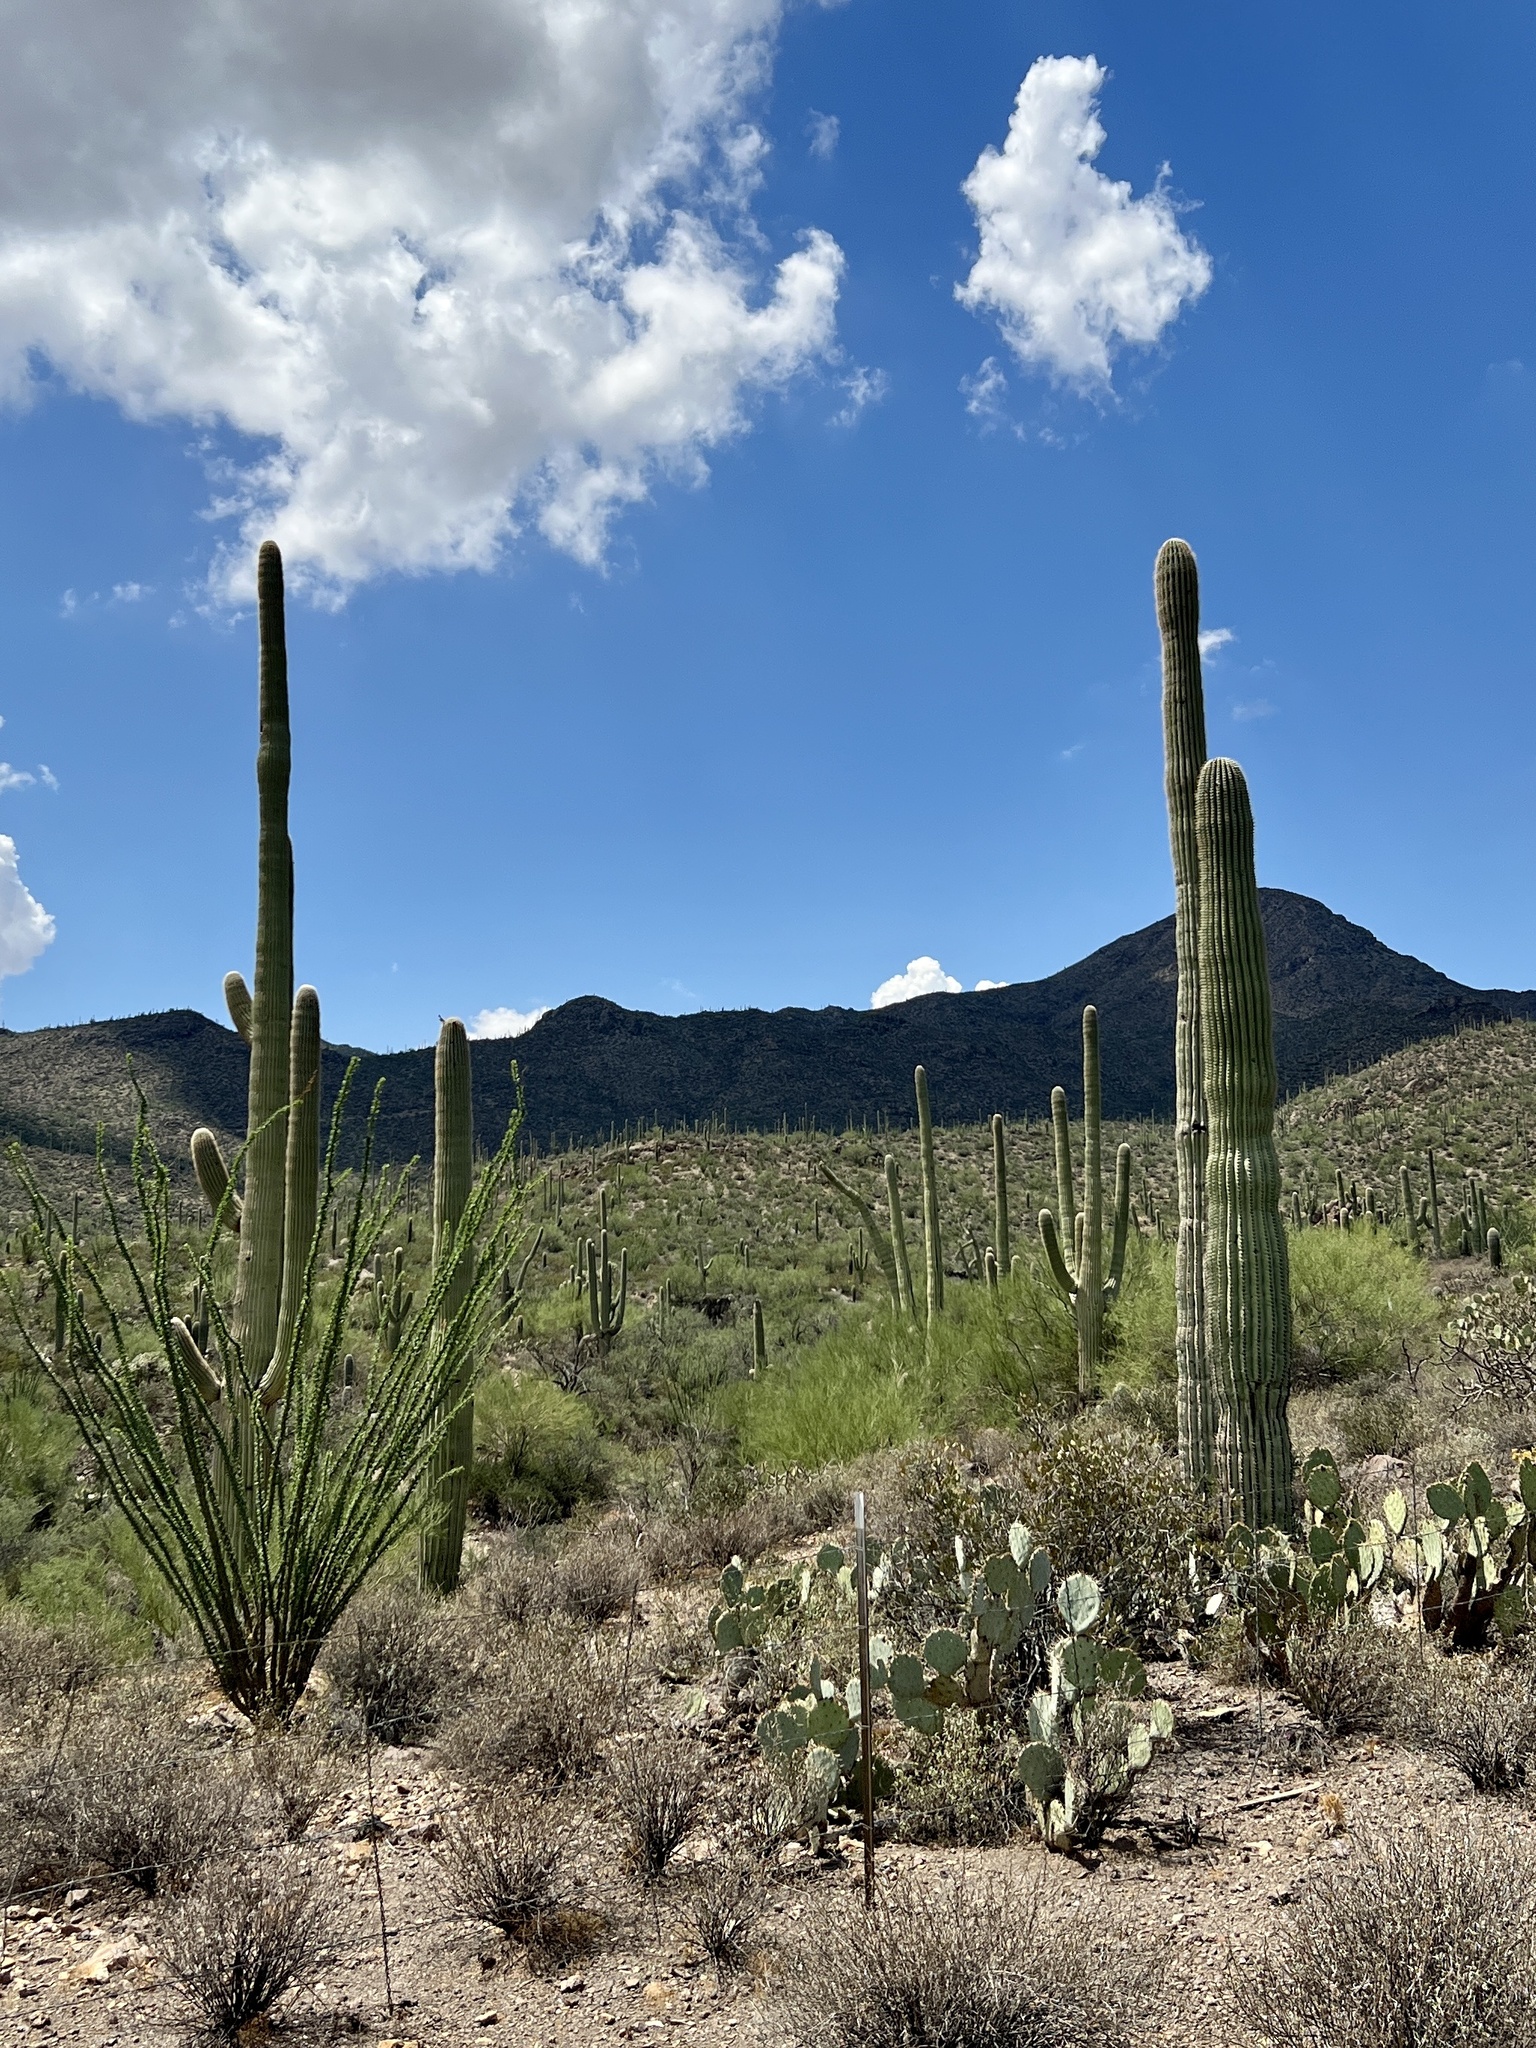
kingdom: Plantae
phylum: Tracheophyta
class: Magnoliopsida
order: Caryophyllales
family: Cactaceae
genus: Carnegiea
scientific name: Carnegiea gigantea
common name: Saguaro
